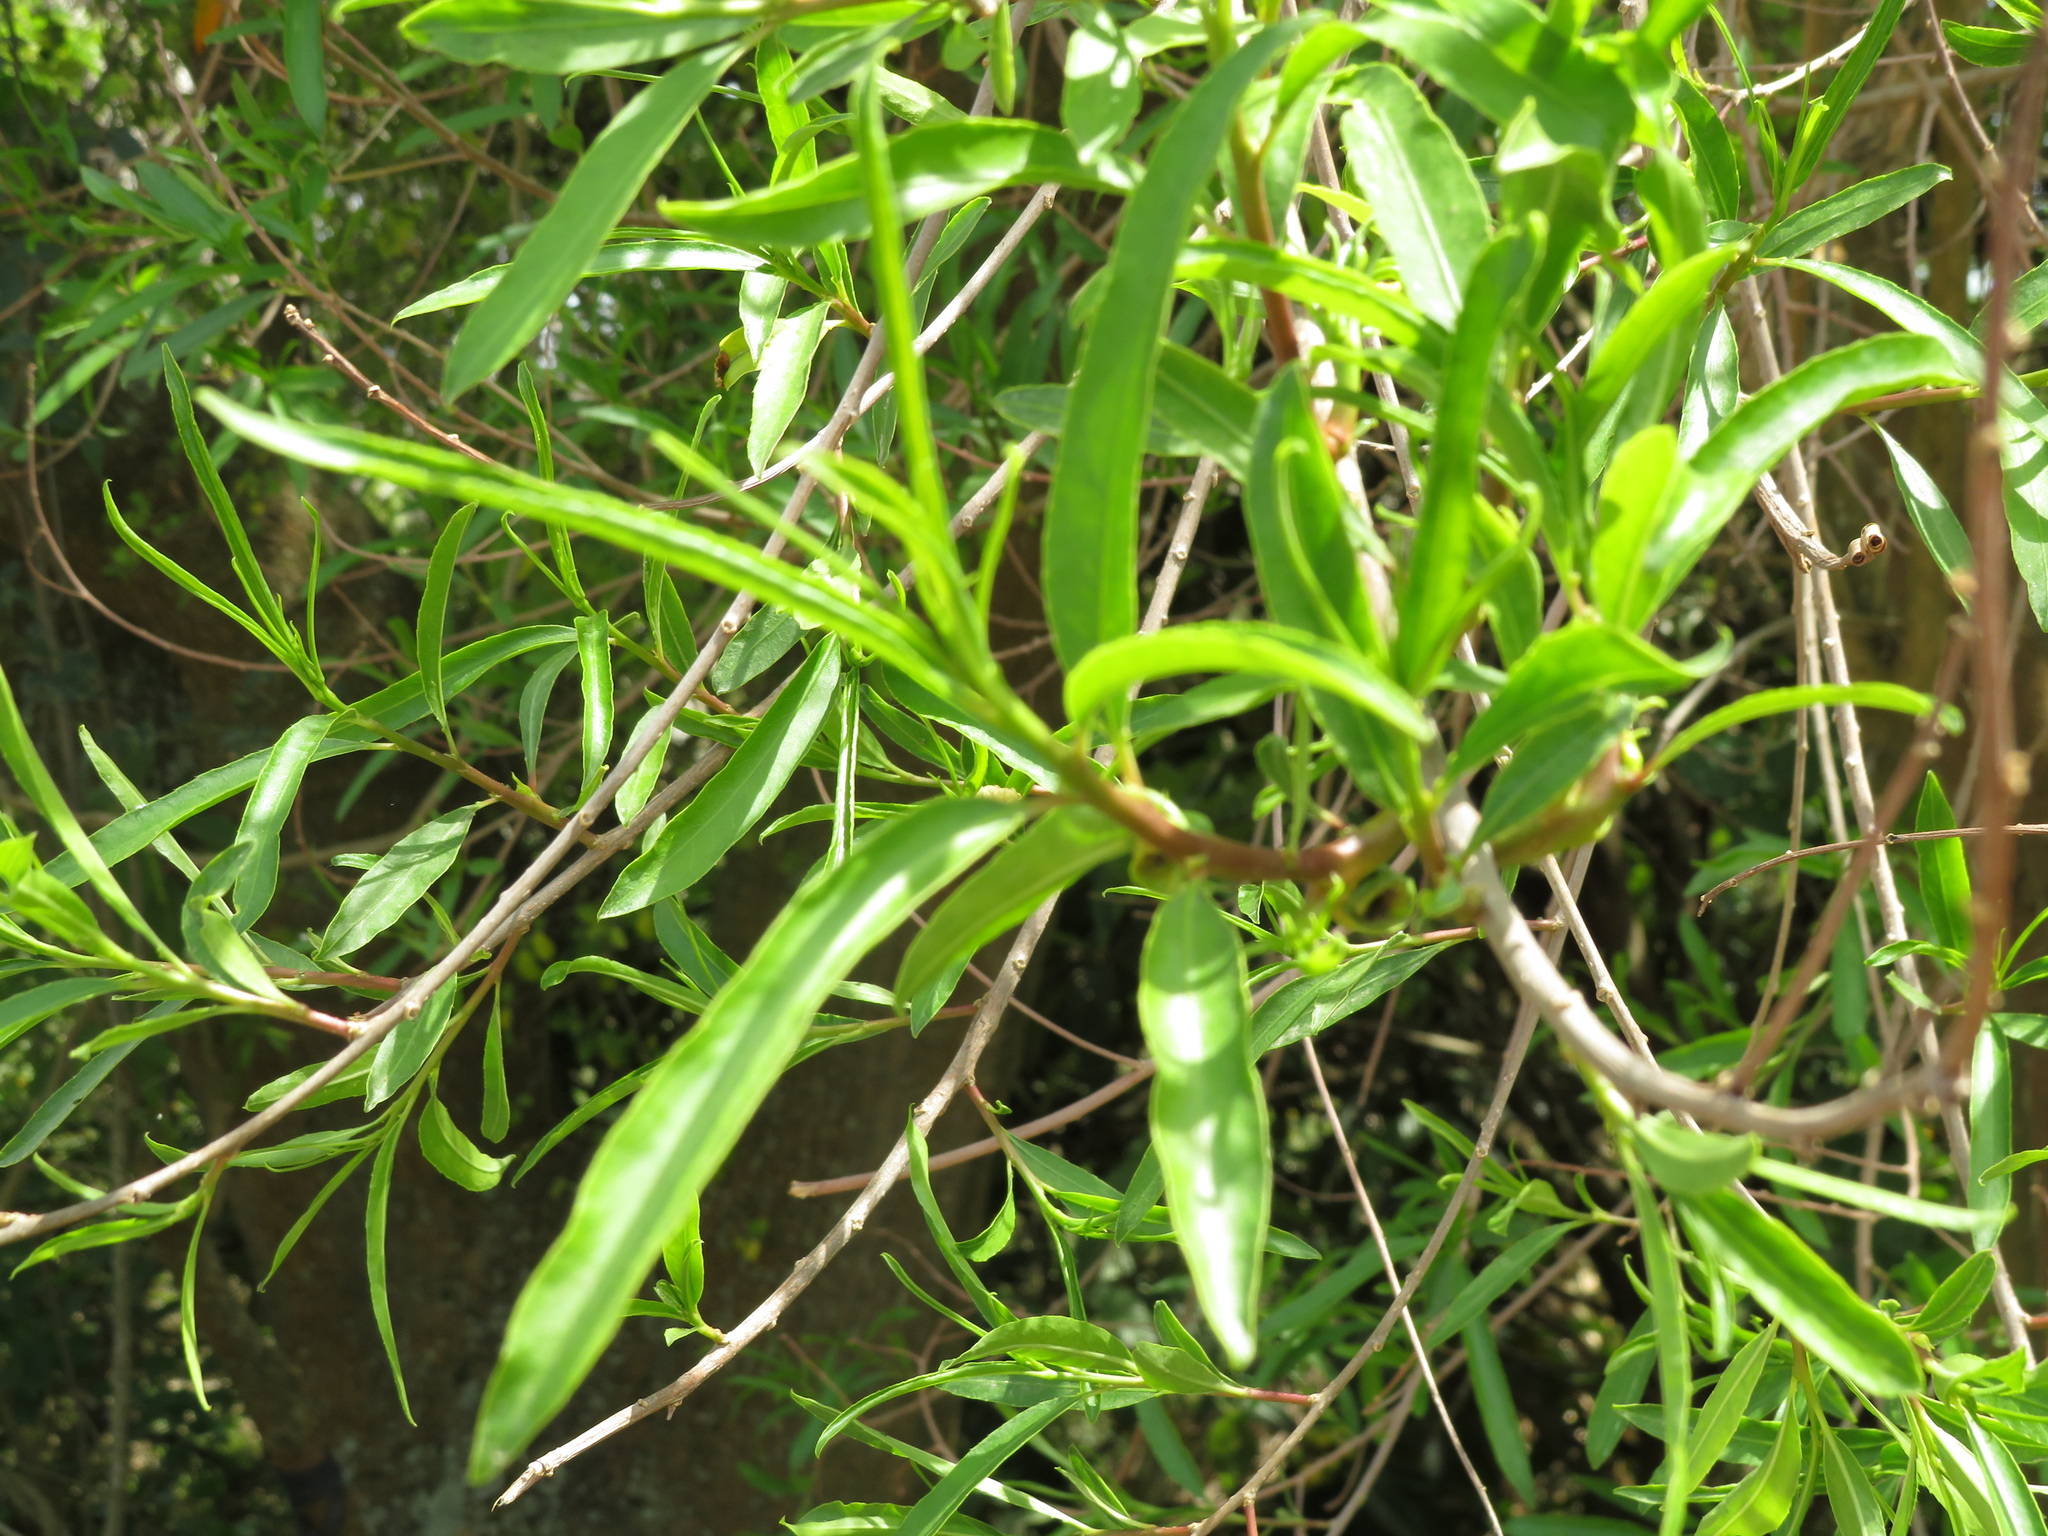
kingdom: Plantae
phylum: Tracheophyta
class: Magnoliopsida
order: Malpighiales
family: Euphorbiaceae
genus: Sapium
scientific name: Sapium haematospermum
